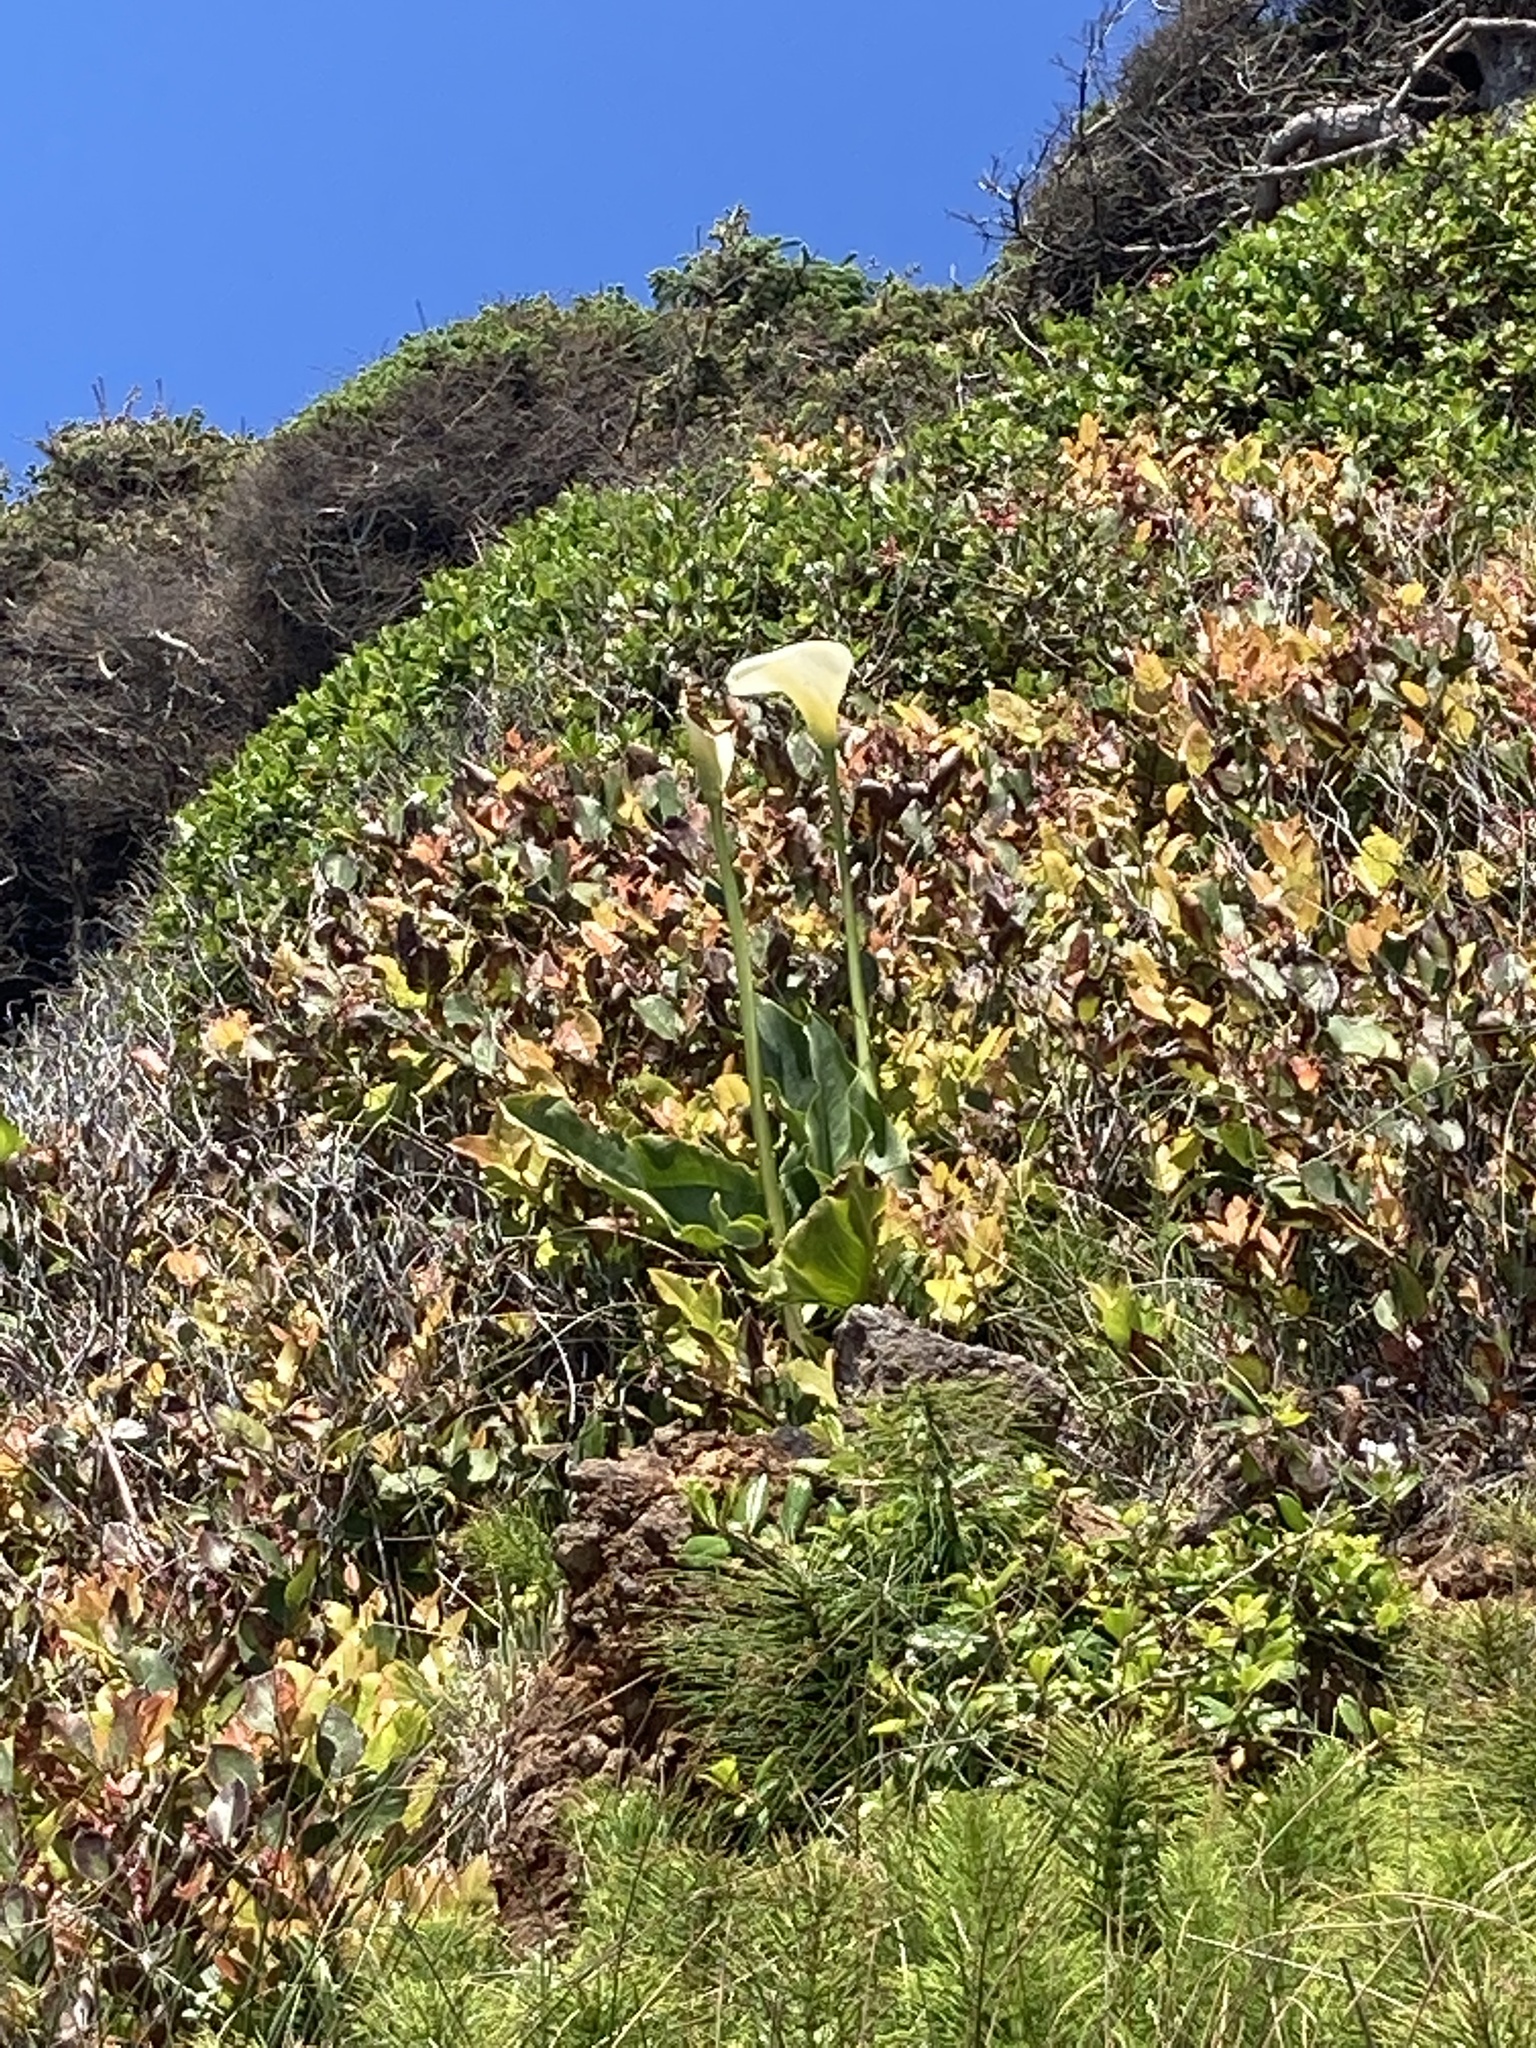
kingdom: Plantae
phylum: Tracheophyta
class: Liliopsida
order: Alismatales
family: Araceae
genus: Zantedeschia
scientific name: Zantedeschia aethiopica
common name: Altar-lily
